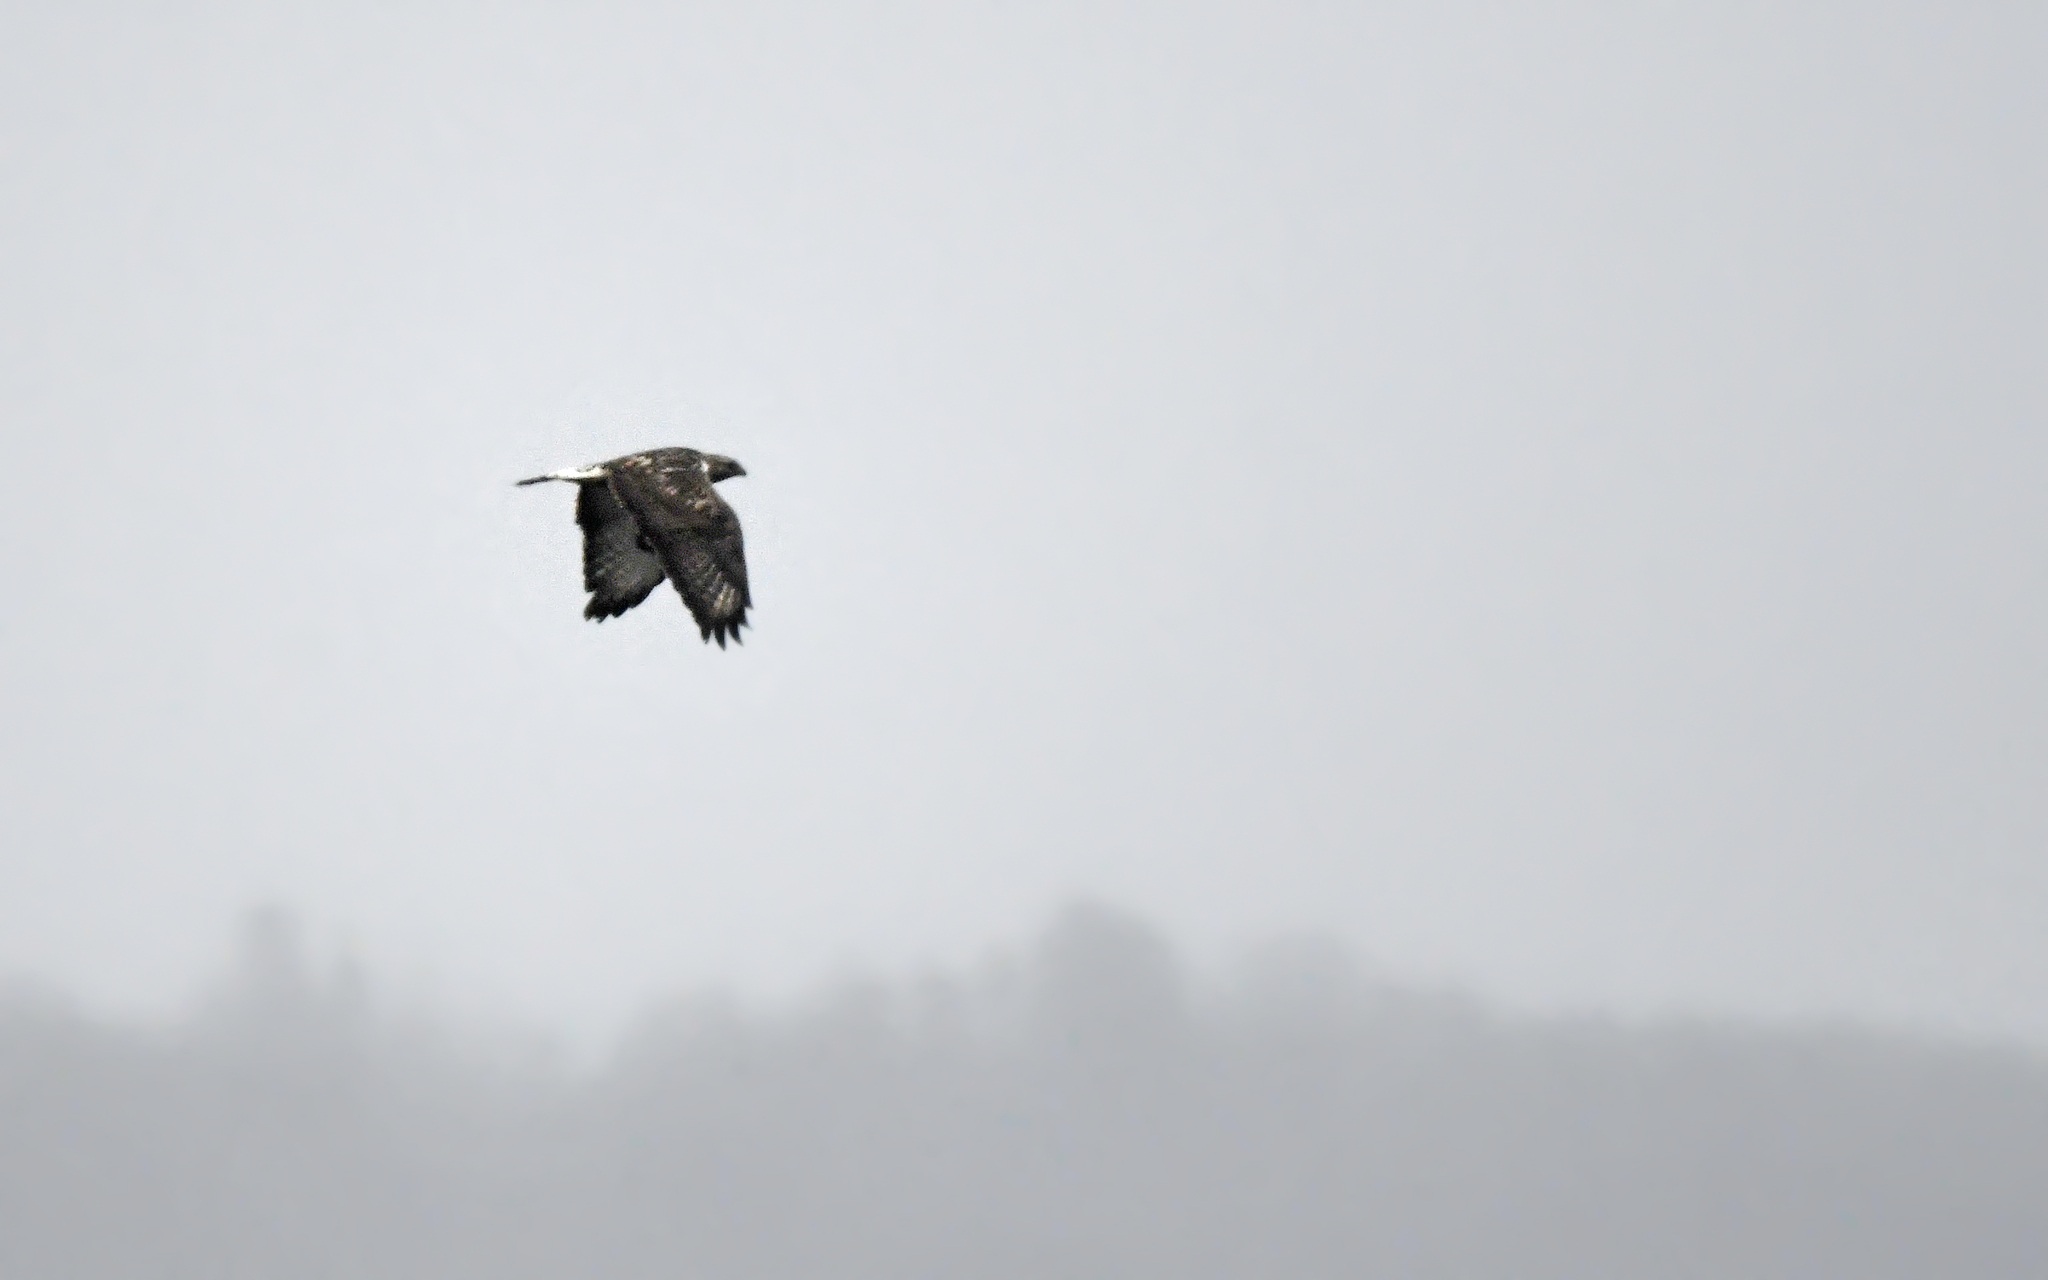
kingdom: Animalia
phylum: Chordata
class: Aves
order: Accipitriformes
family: Accipitridae
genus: Buteo
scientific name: Buteo lagopus
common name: Rough-legged buzzard
